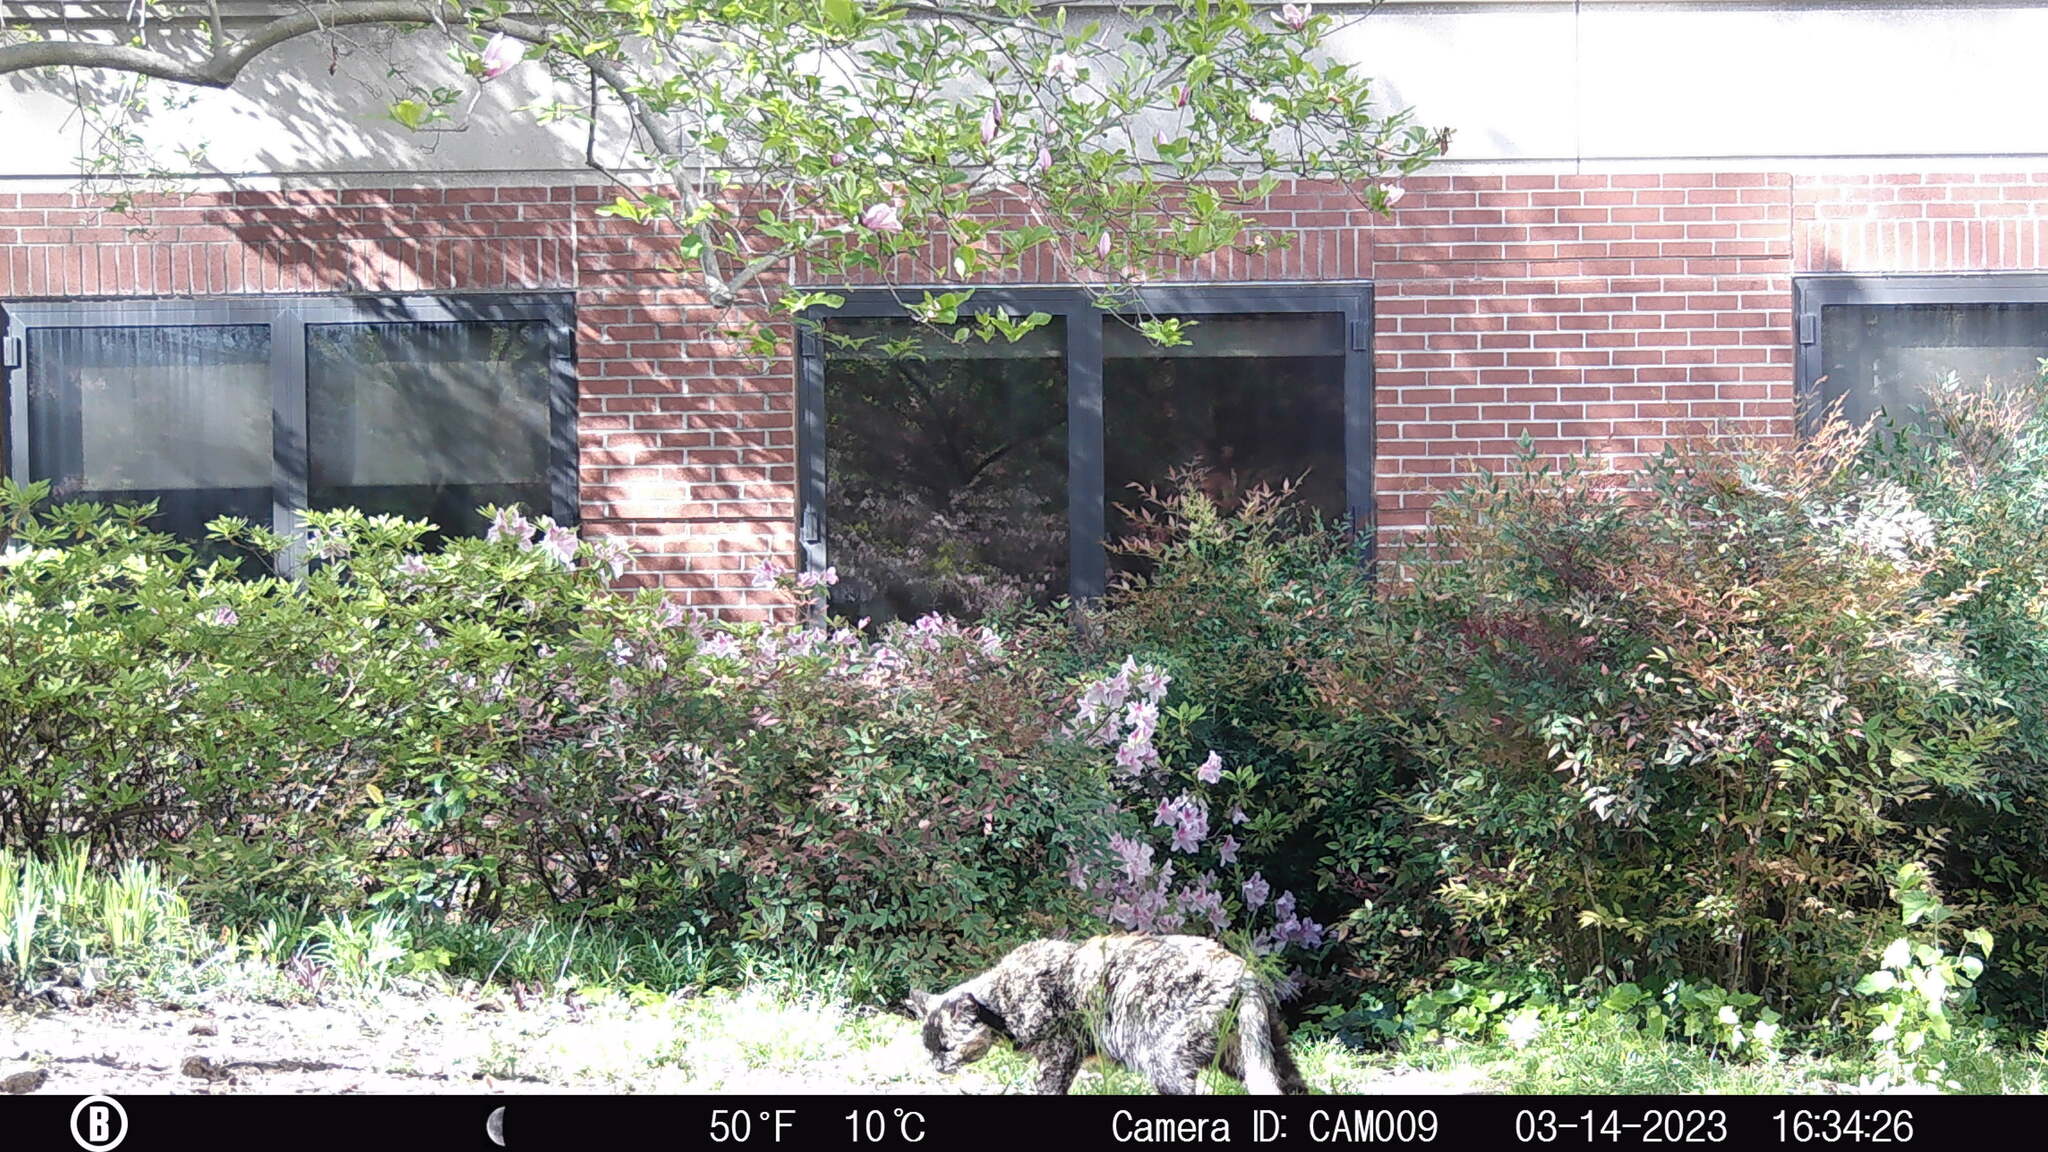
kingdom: Animalia
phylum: Chordata
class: Mammalia
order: Carnivora
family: Felidae
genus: Felis
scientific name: Felis catus
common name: Domestic cat
